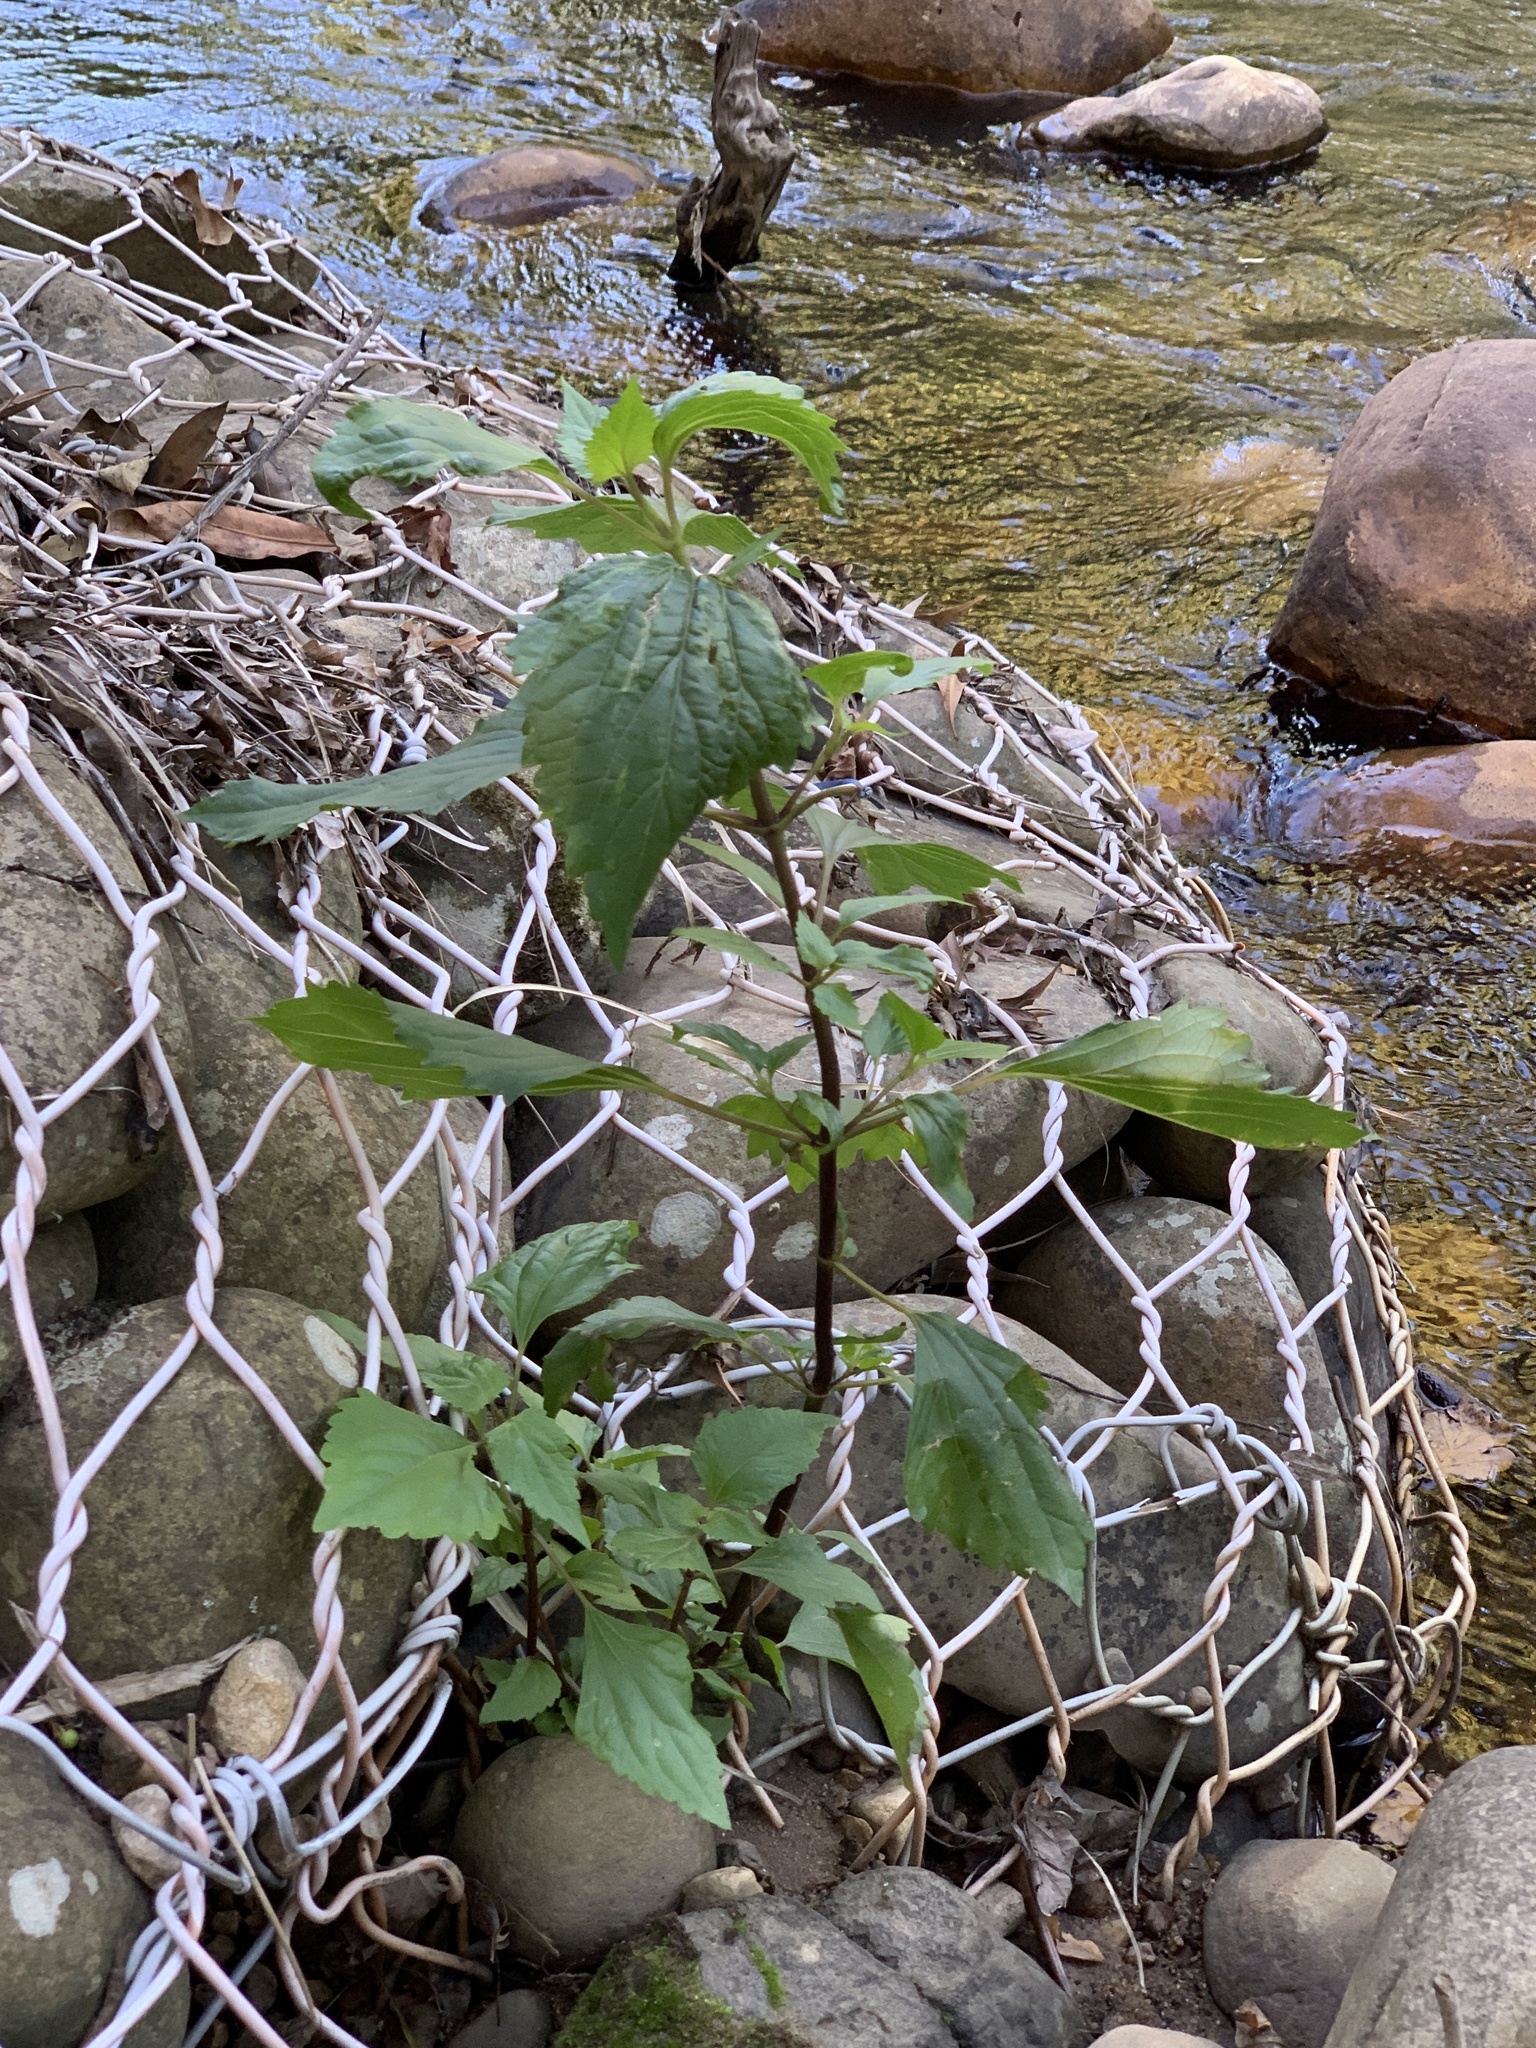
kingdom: Plantae
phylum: Tracheophyta
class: Magnoliopsida
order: Asterales
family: Asteraceae
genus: Ageratina
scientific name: Ageratina adenophora
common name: Sticky snakeroot
